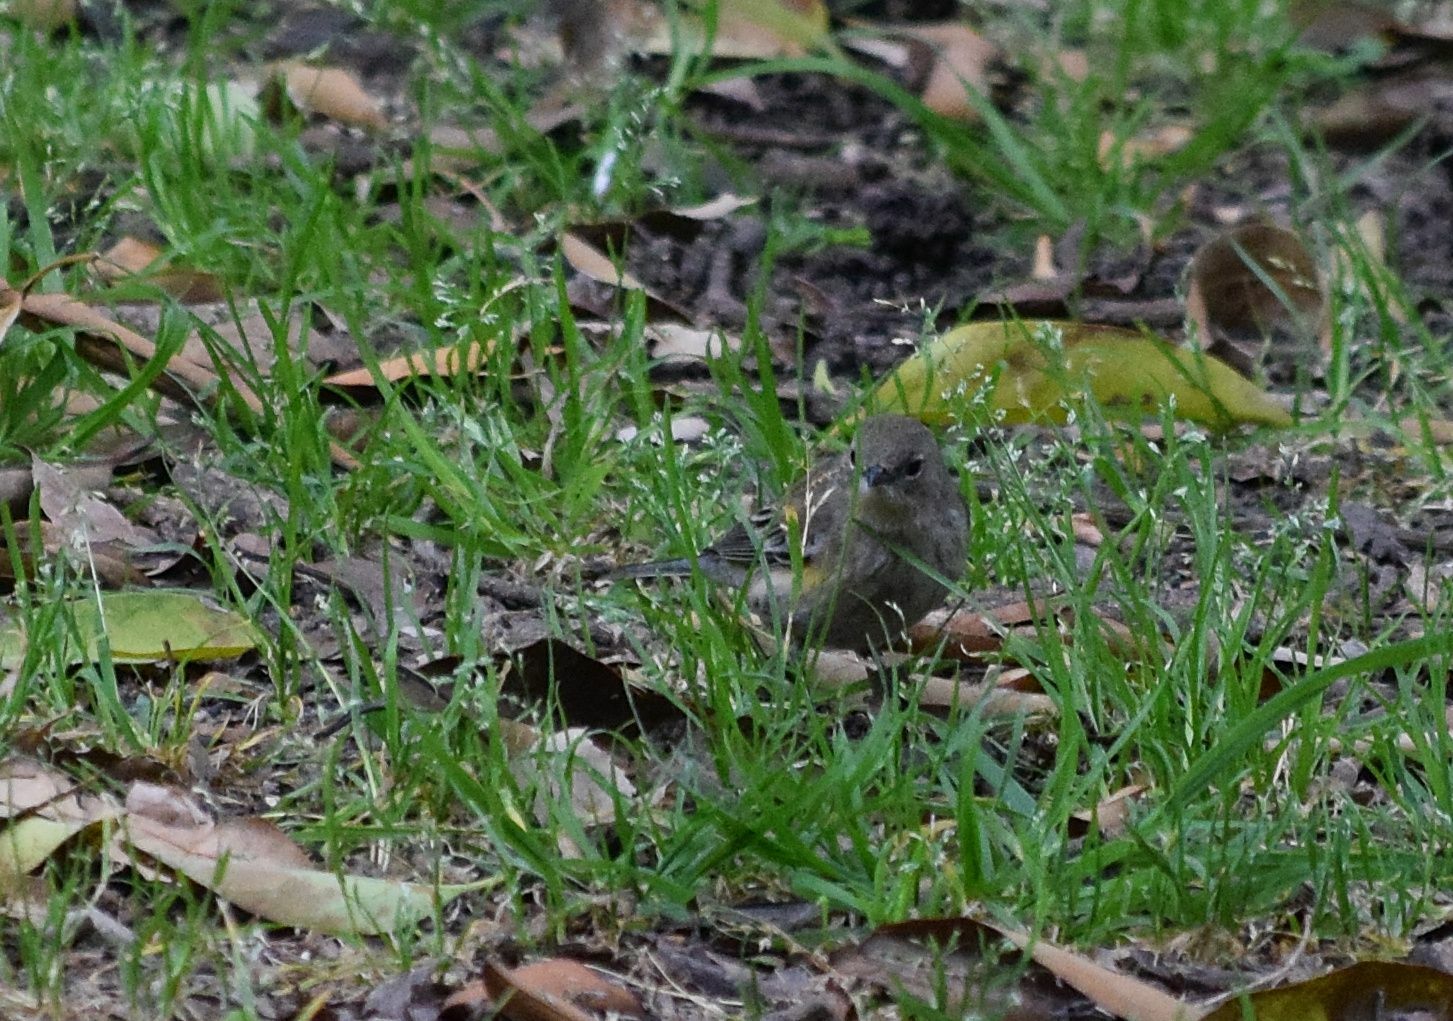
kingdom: Animalia
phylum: Chordata
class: Aves
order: Passeriformes
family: Parulidae
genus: Setophaga
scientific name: Setophaga coronata
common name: Myrtle warbler
